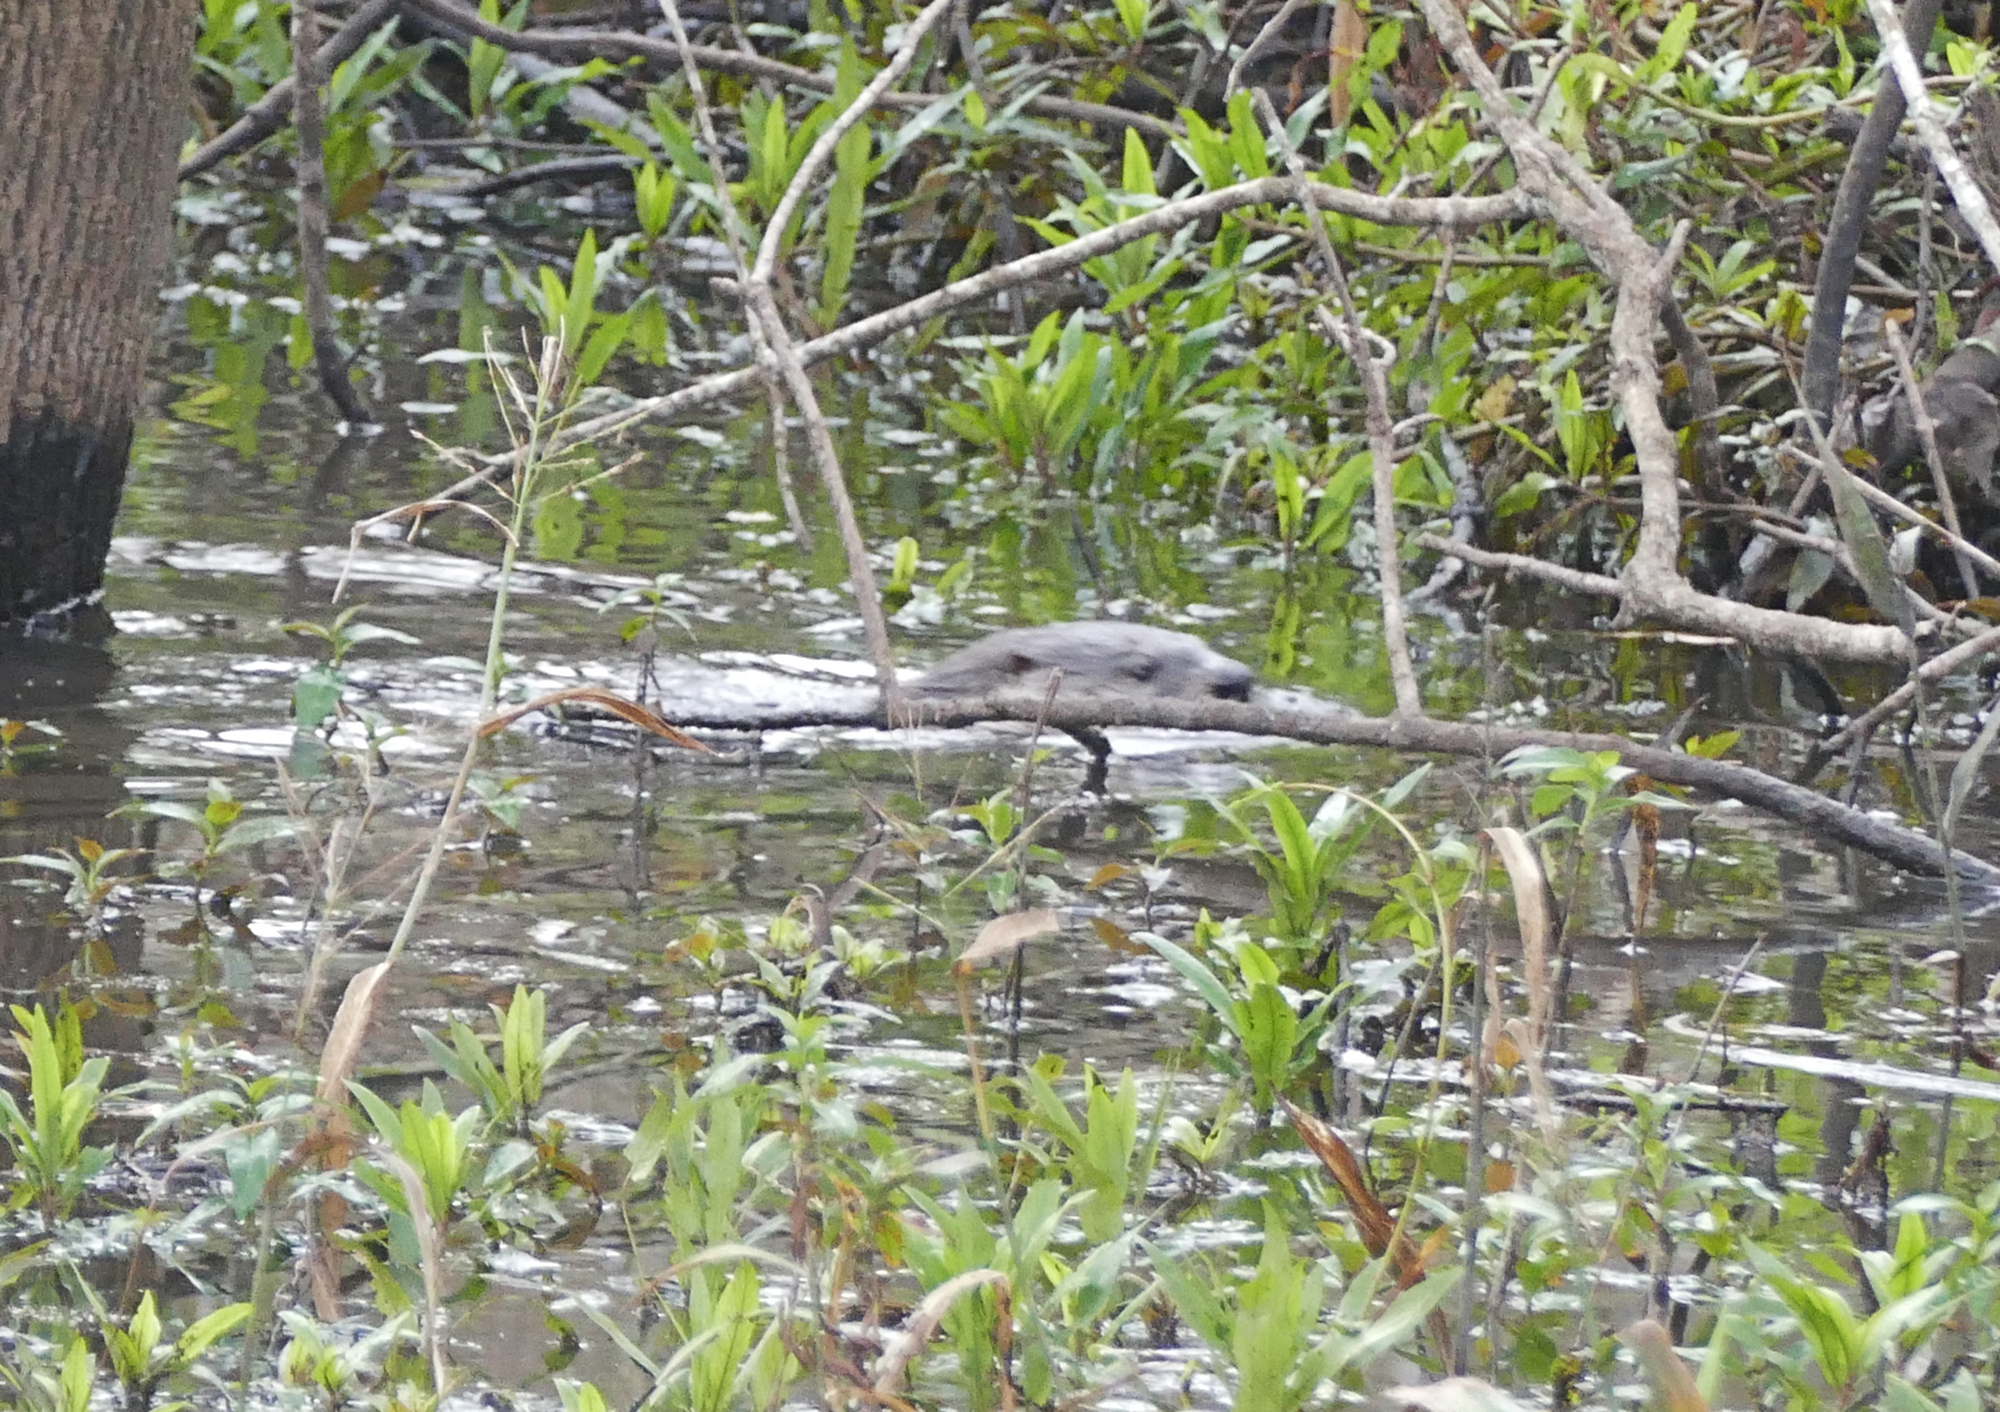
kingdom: Animalia
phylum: Chordata
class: Mammalia
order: Carnivora
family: Mustelidae
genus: Lontra
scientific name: Lontra canadensis
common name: North american river otter
